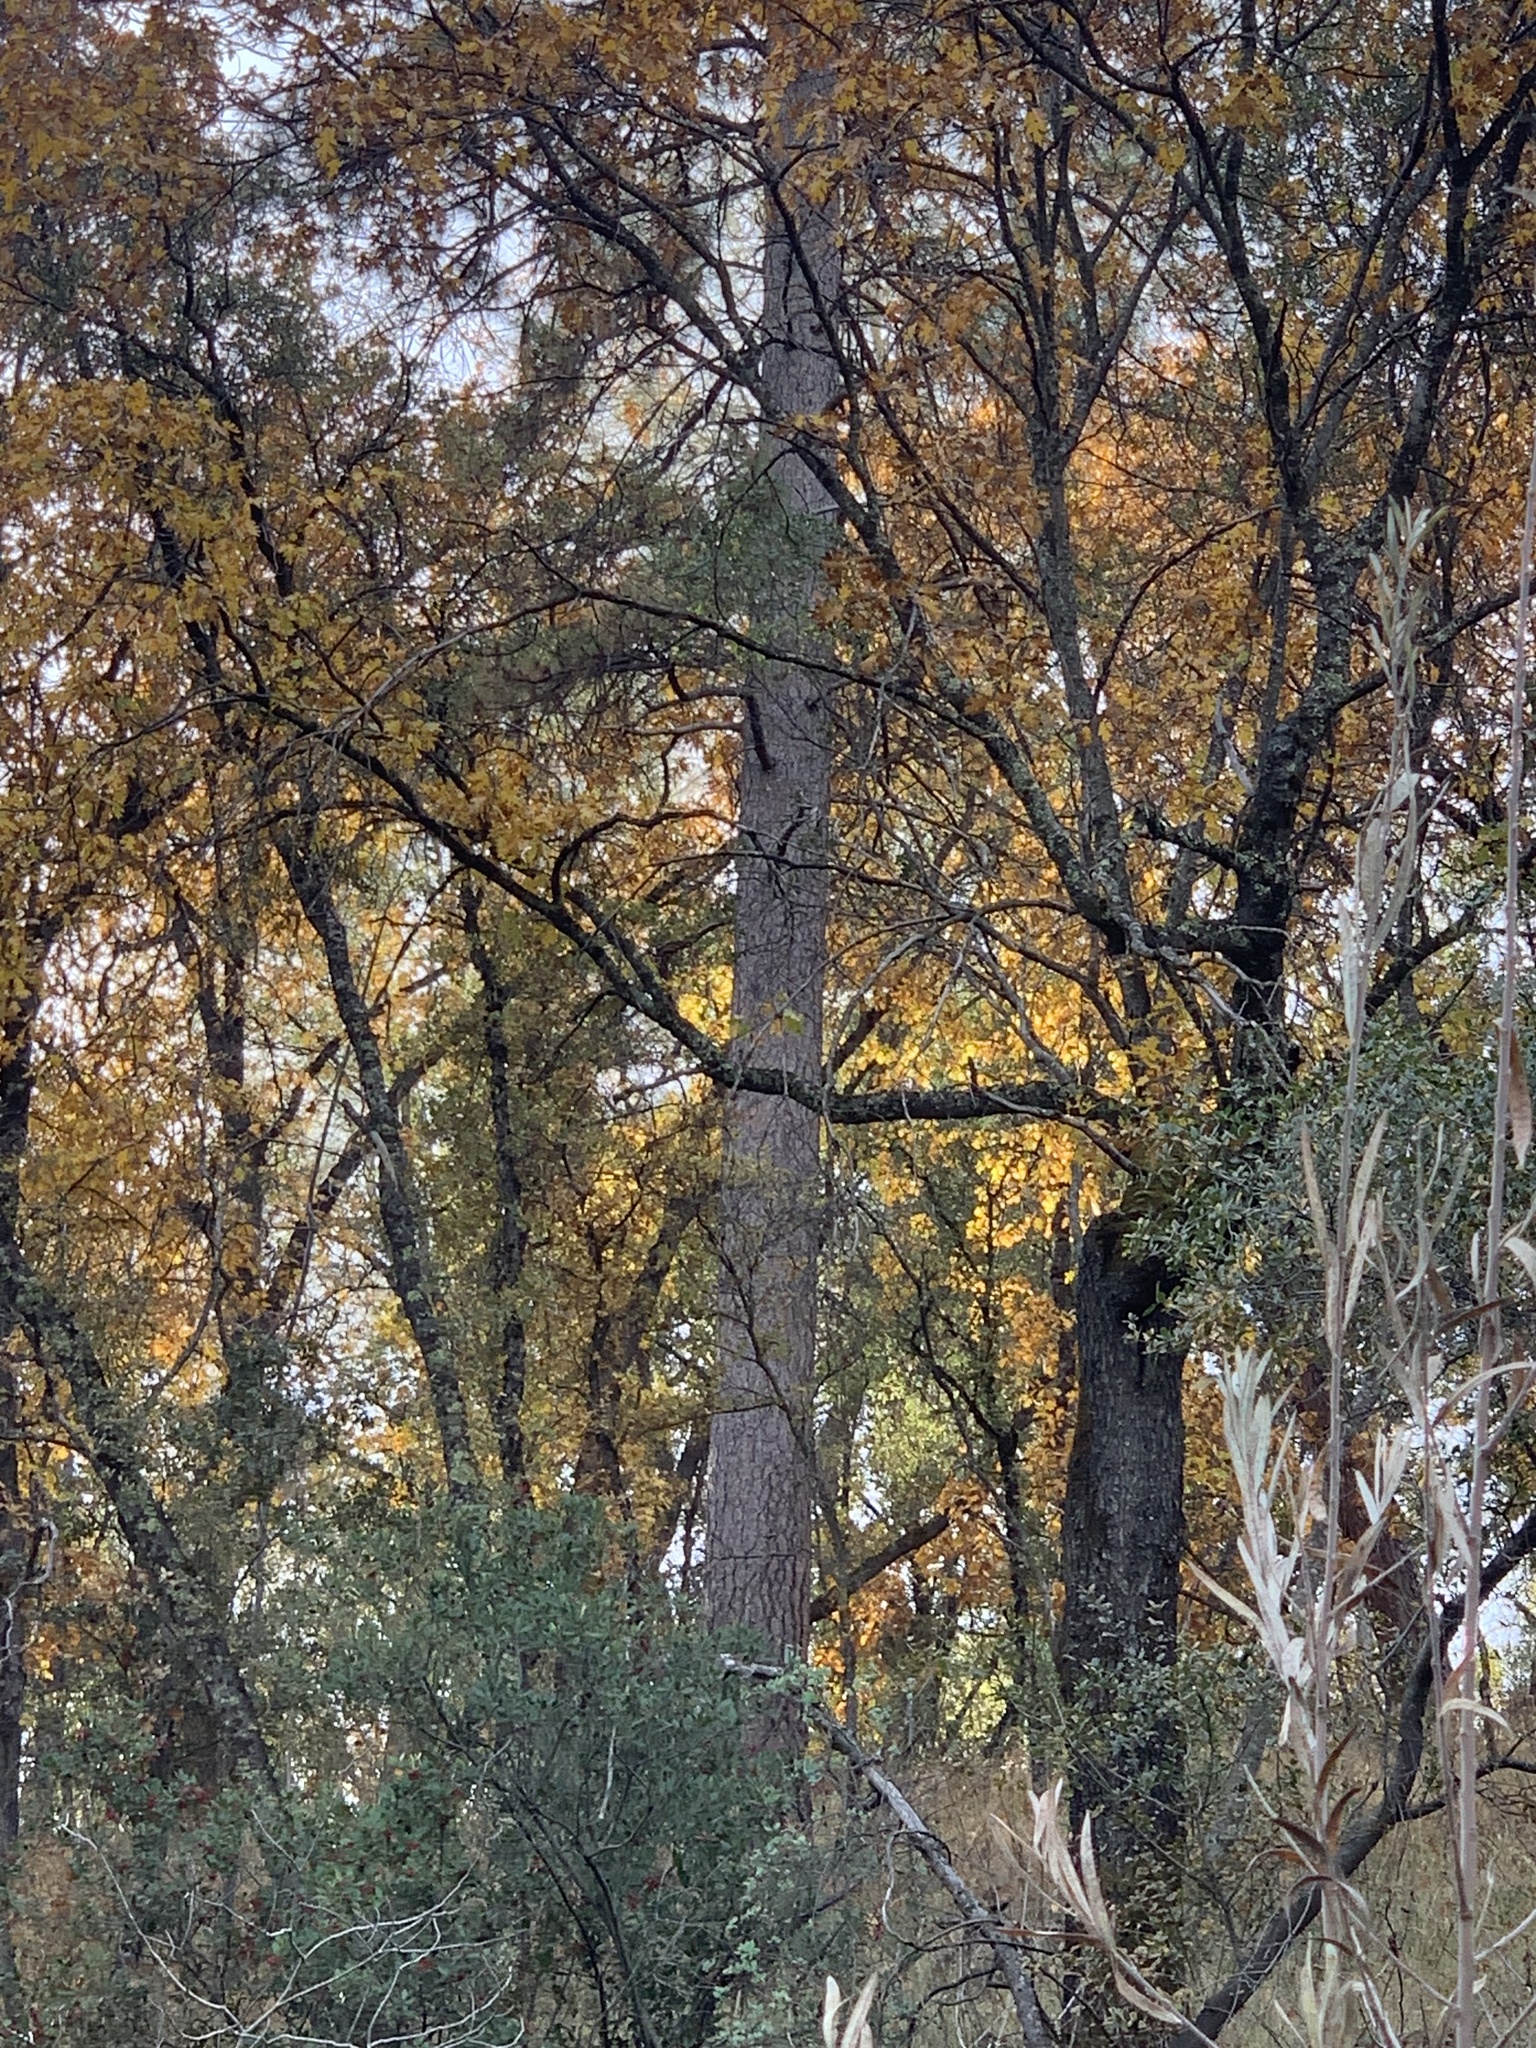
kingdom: Plantae
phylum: Tracheophyta
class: Pinopsida
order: Pinales
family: Pinaceae
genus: Pinus
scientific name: Pinus ponderosa
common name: Western yellow-pine
